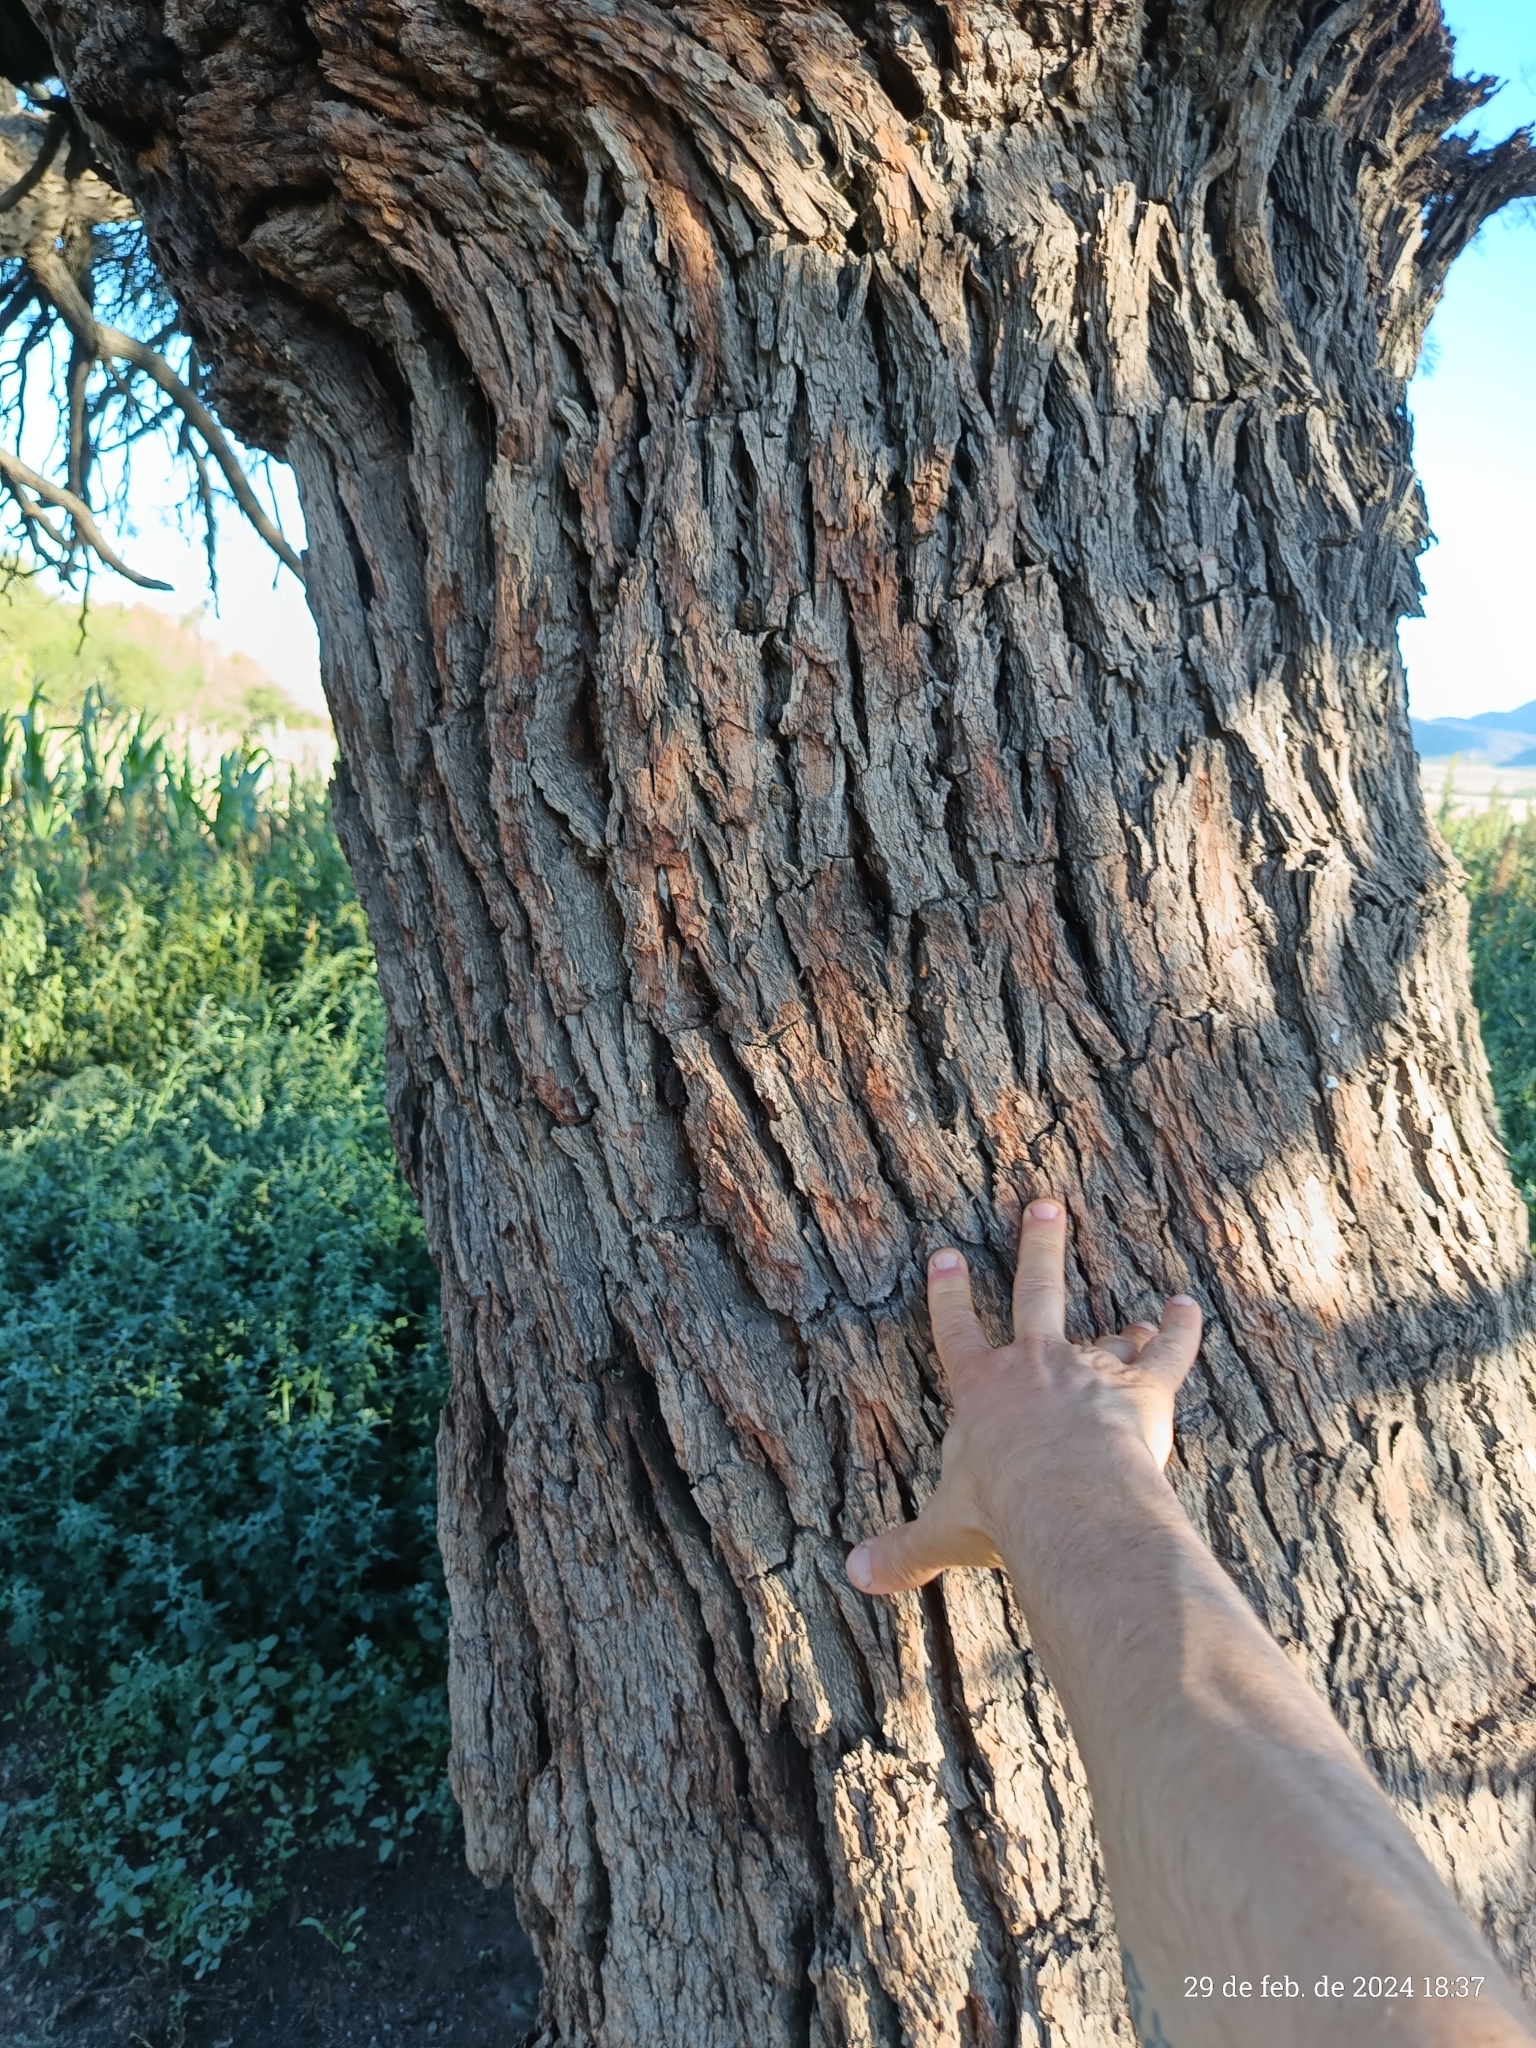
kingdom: Plantae
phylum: Tracheophyta
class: Magnoliopsida
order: Fabales
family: Fabaceae
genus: Prosopis
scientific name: Prosopis flexuosa
